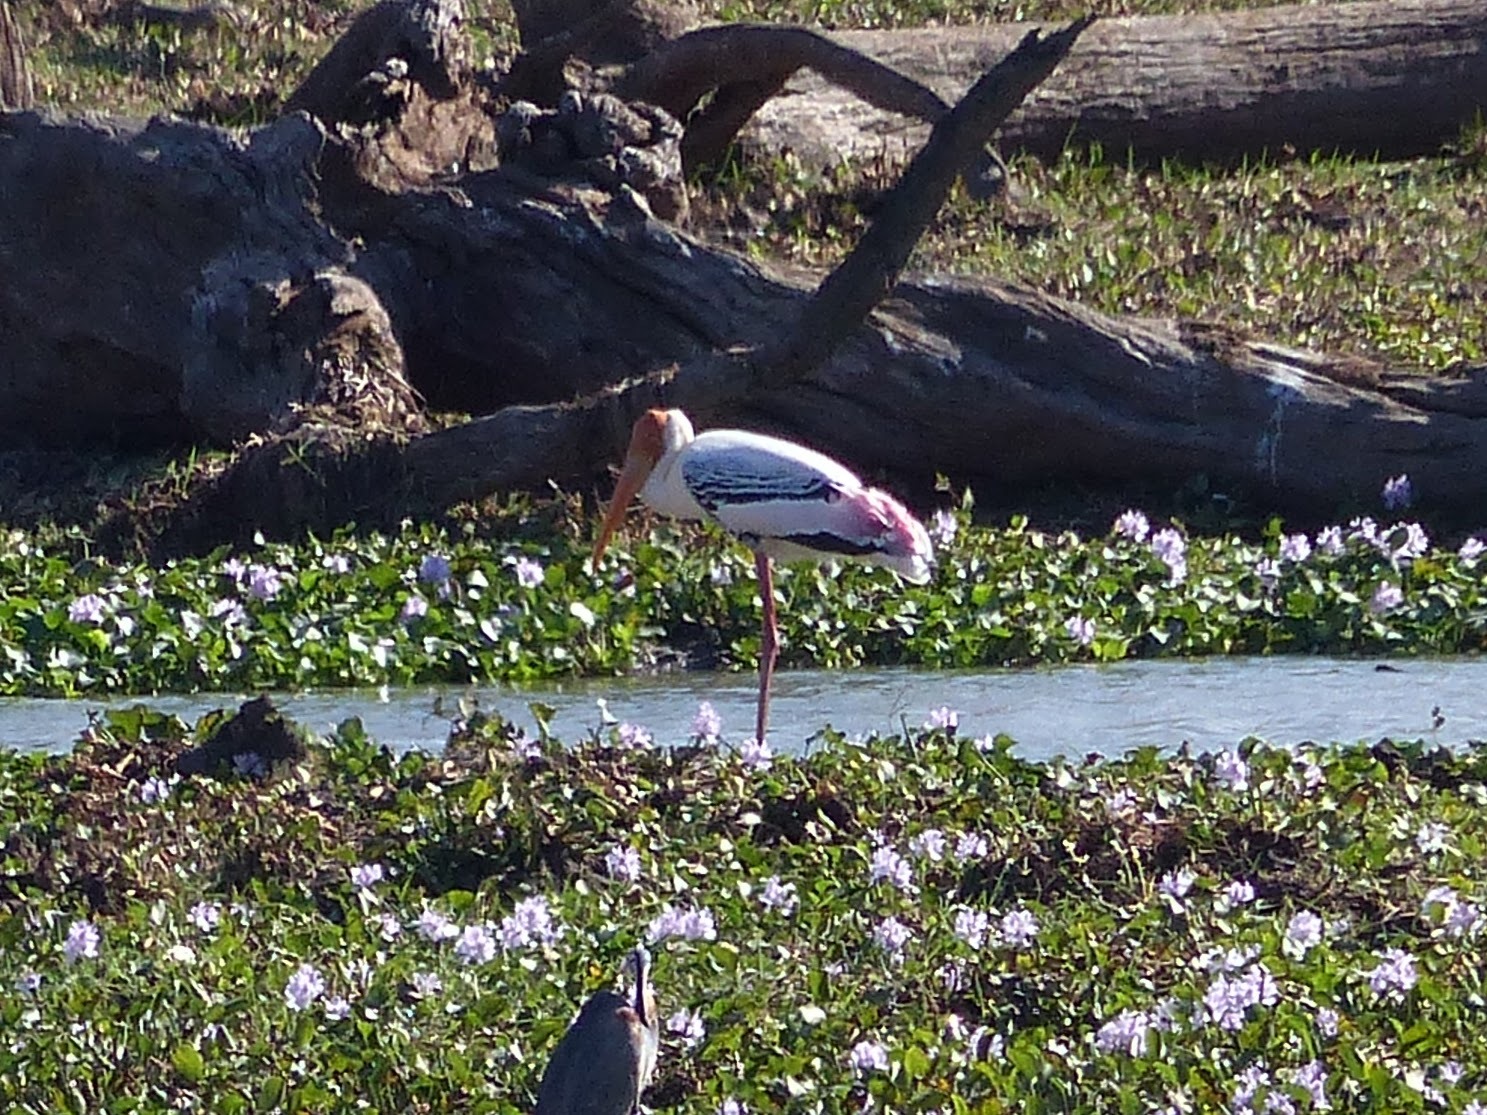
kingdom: Animalia
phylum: Chordata
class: Aves
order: Ciconiiformes
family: Ciconiidae
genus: Mycteria
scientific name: Mycteria leucocephala
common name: Painted stork
